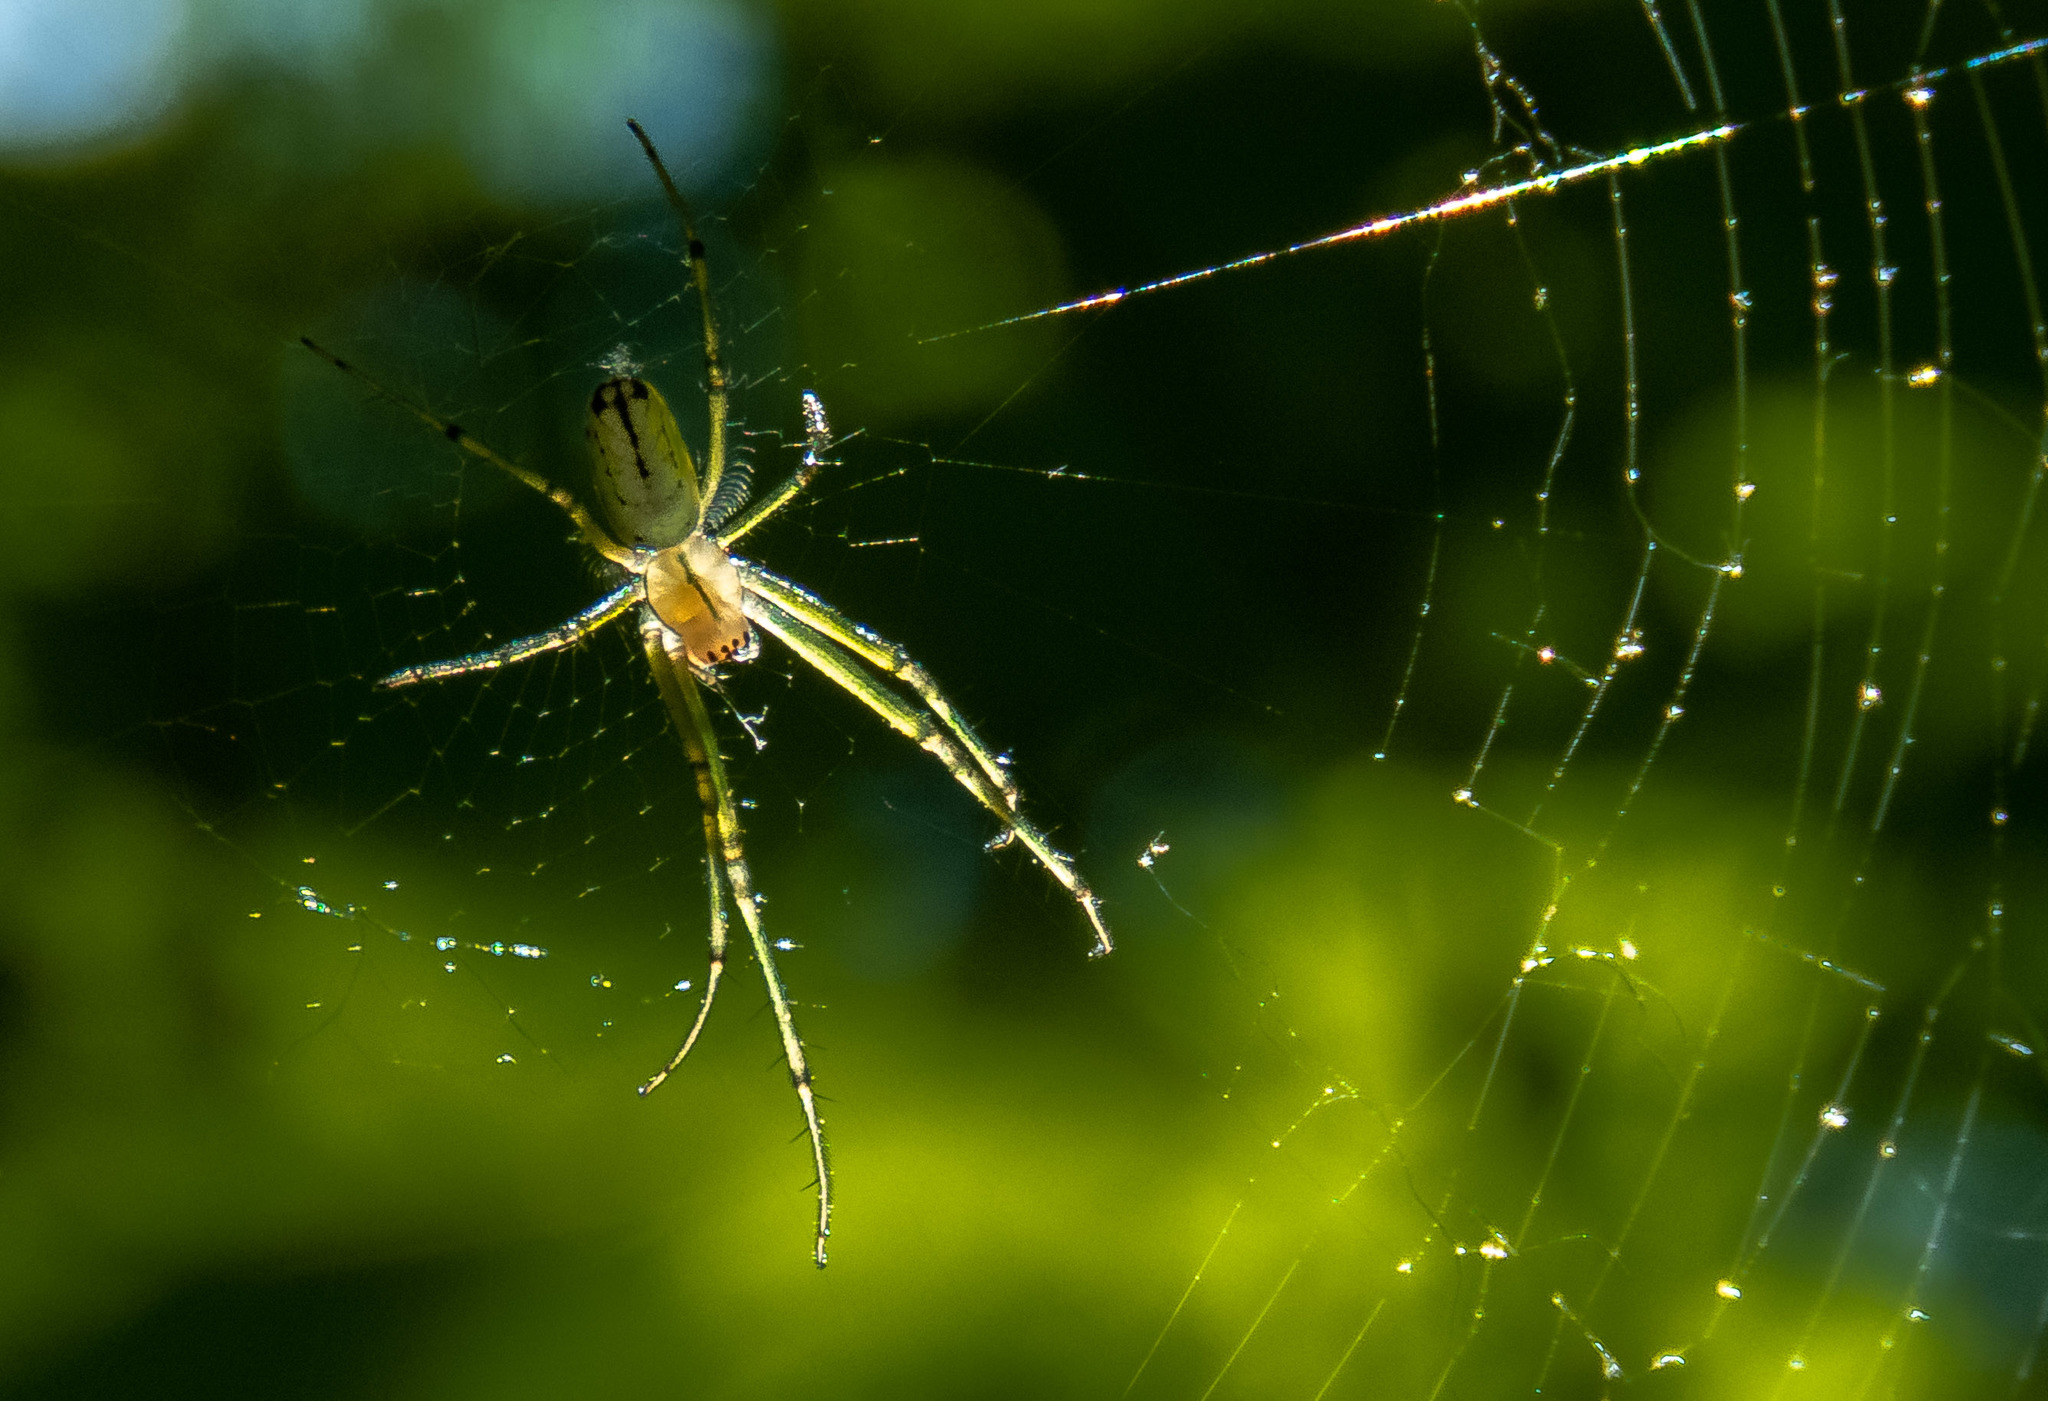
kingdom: Animalia
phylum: Arthropoda
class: Arachnida
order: Araneae
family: Tetragnathidae
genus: Leucauge
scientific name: Leucauge venusta
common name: Longjawed orb weavers
